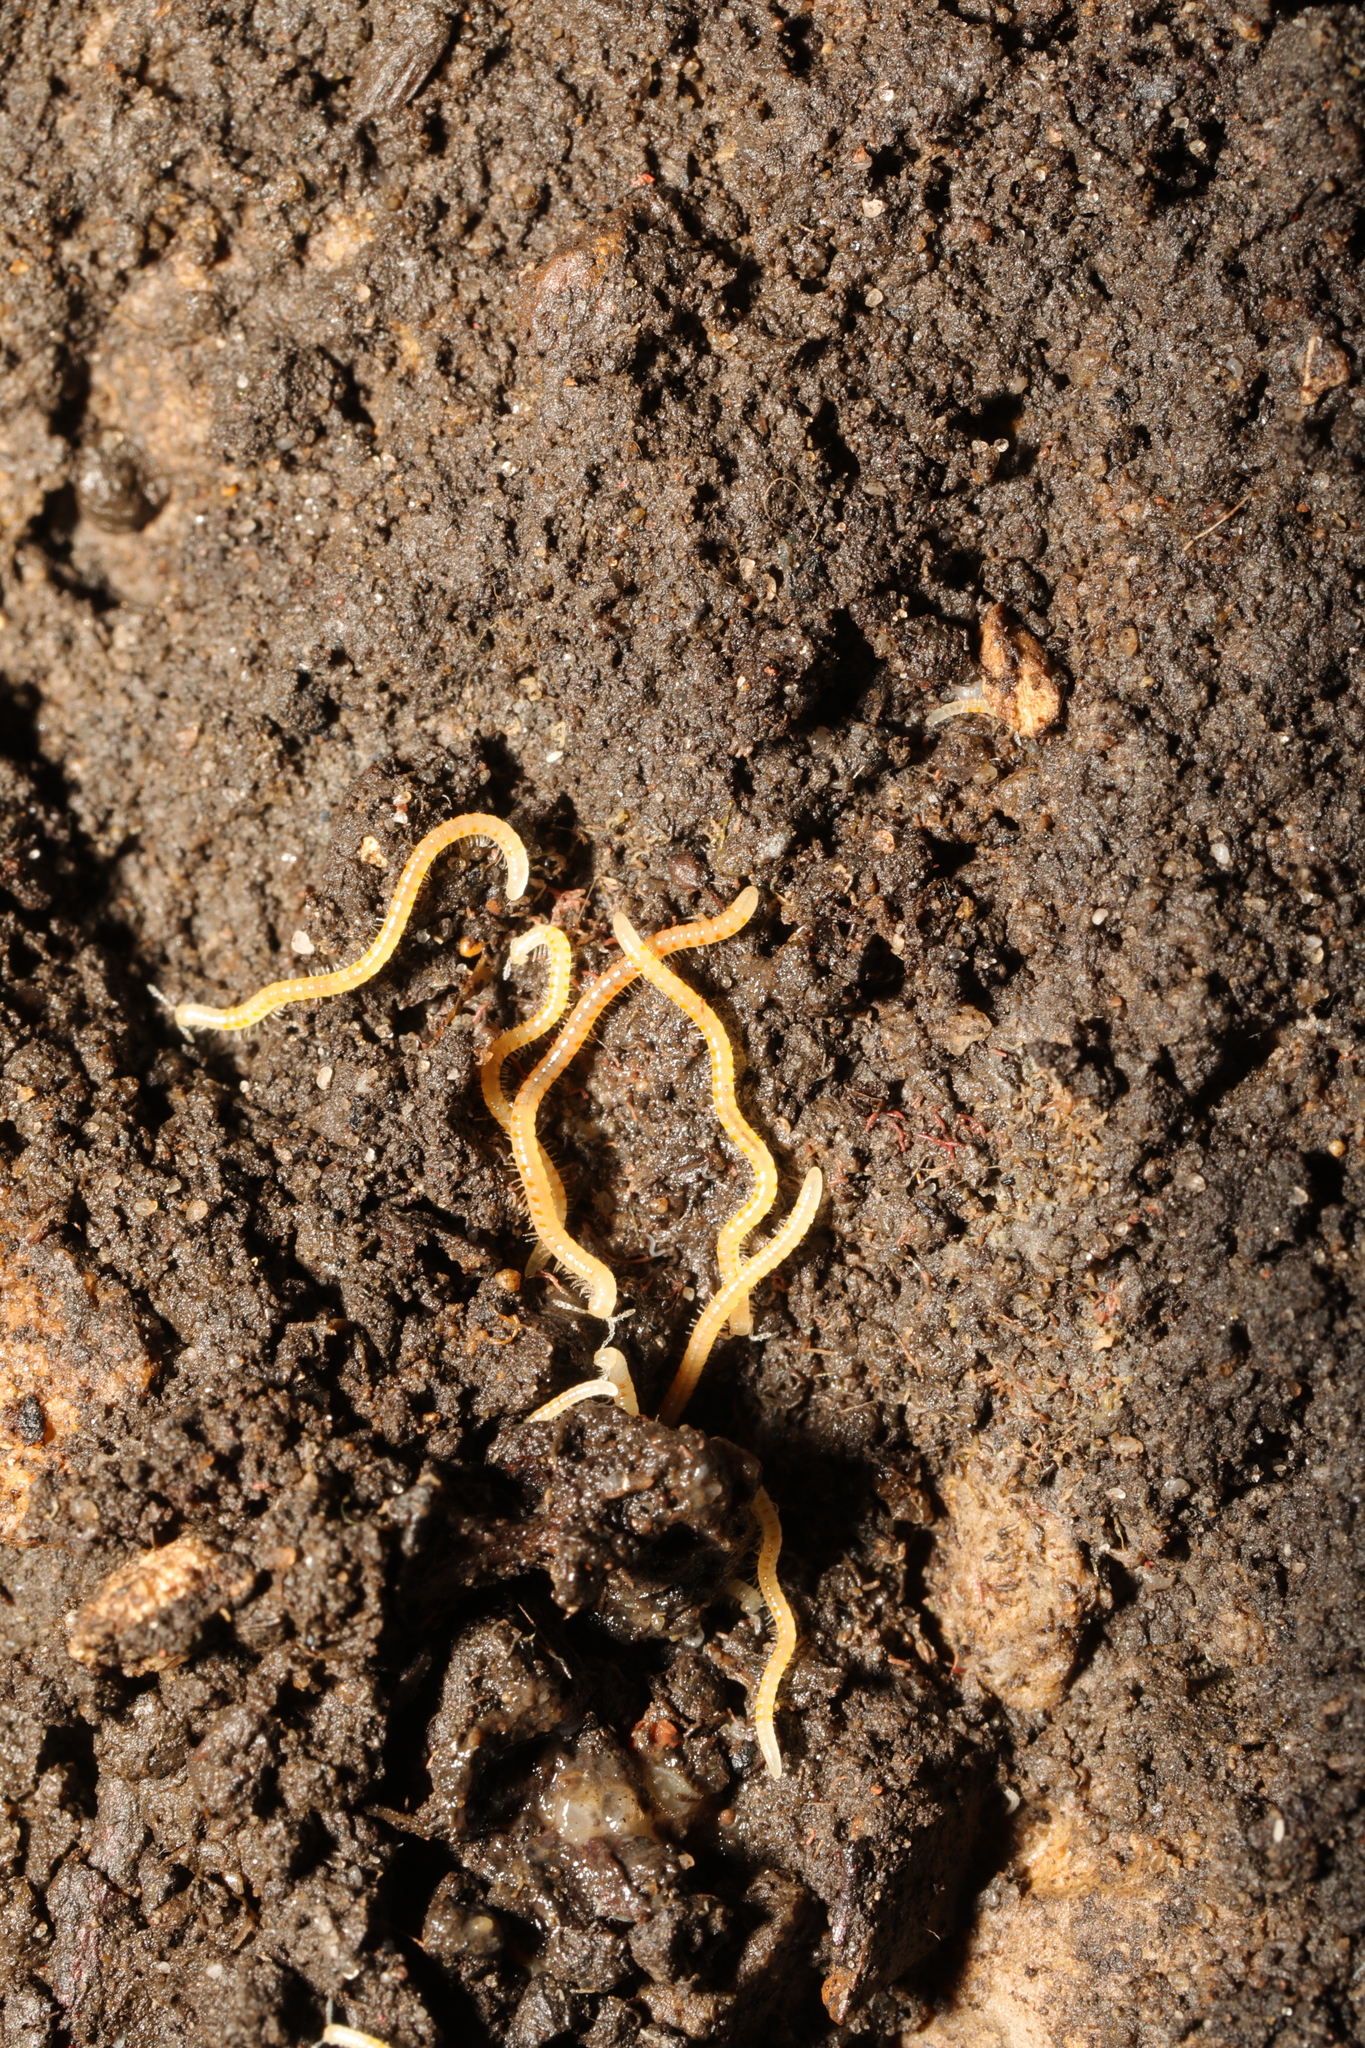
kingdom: Animalia
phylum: Arthropoda
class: Diplopoda
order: Julida
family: Blaniulidae
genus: Boreoiulus
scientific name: Boreoiulus tenuis
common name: Slender snake millipede
